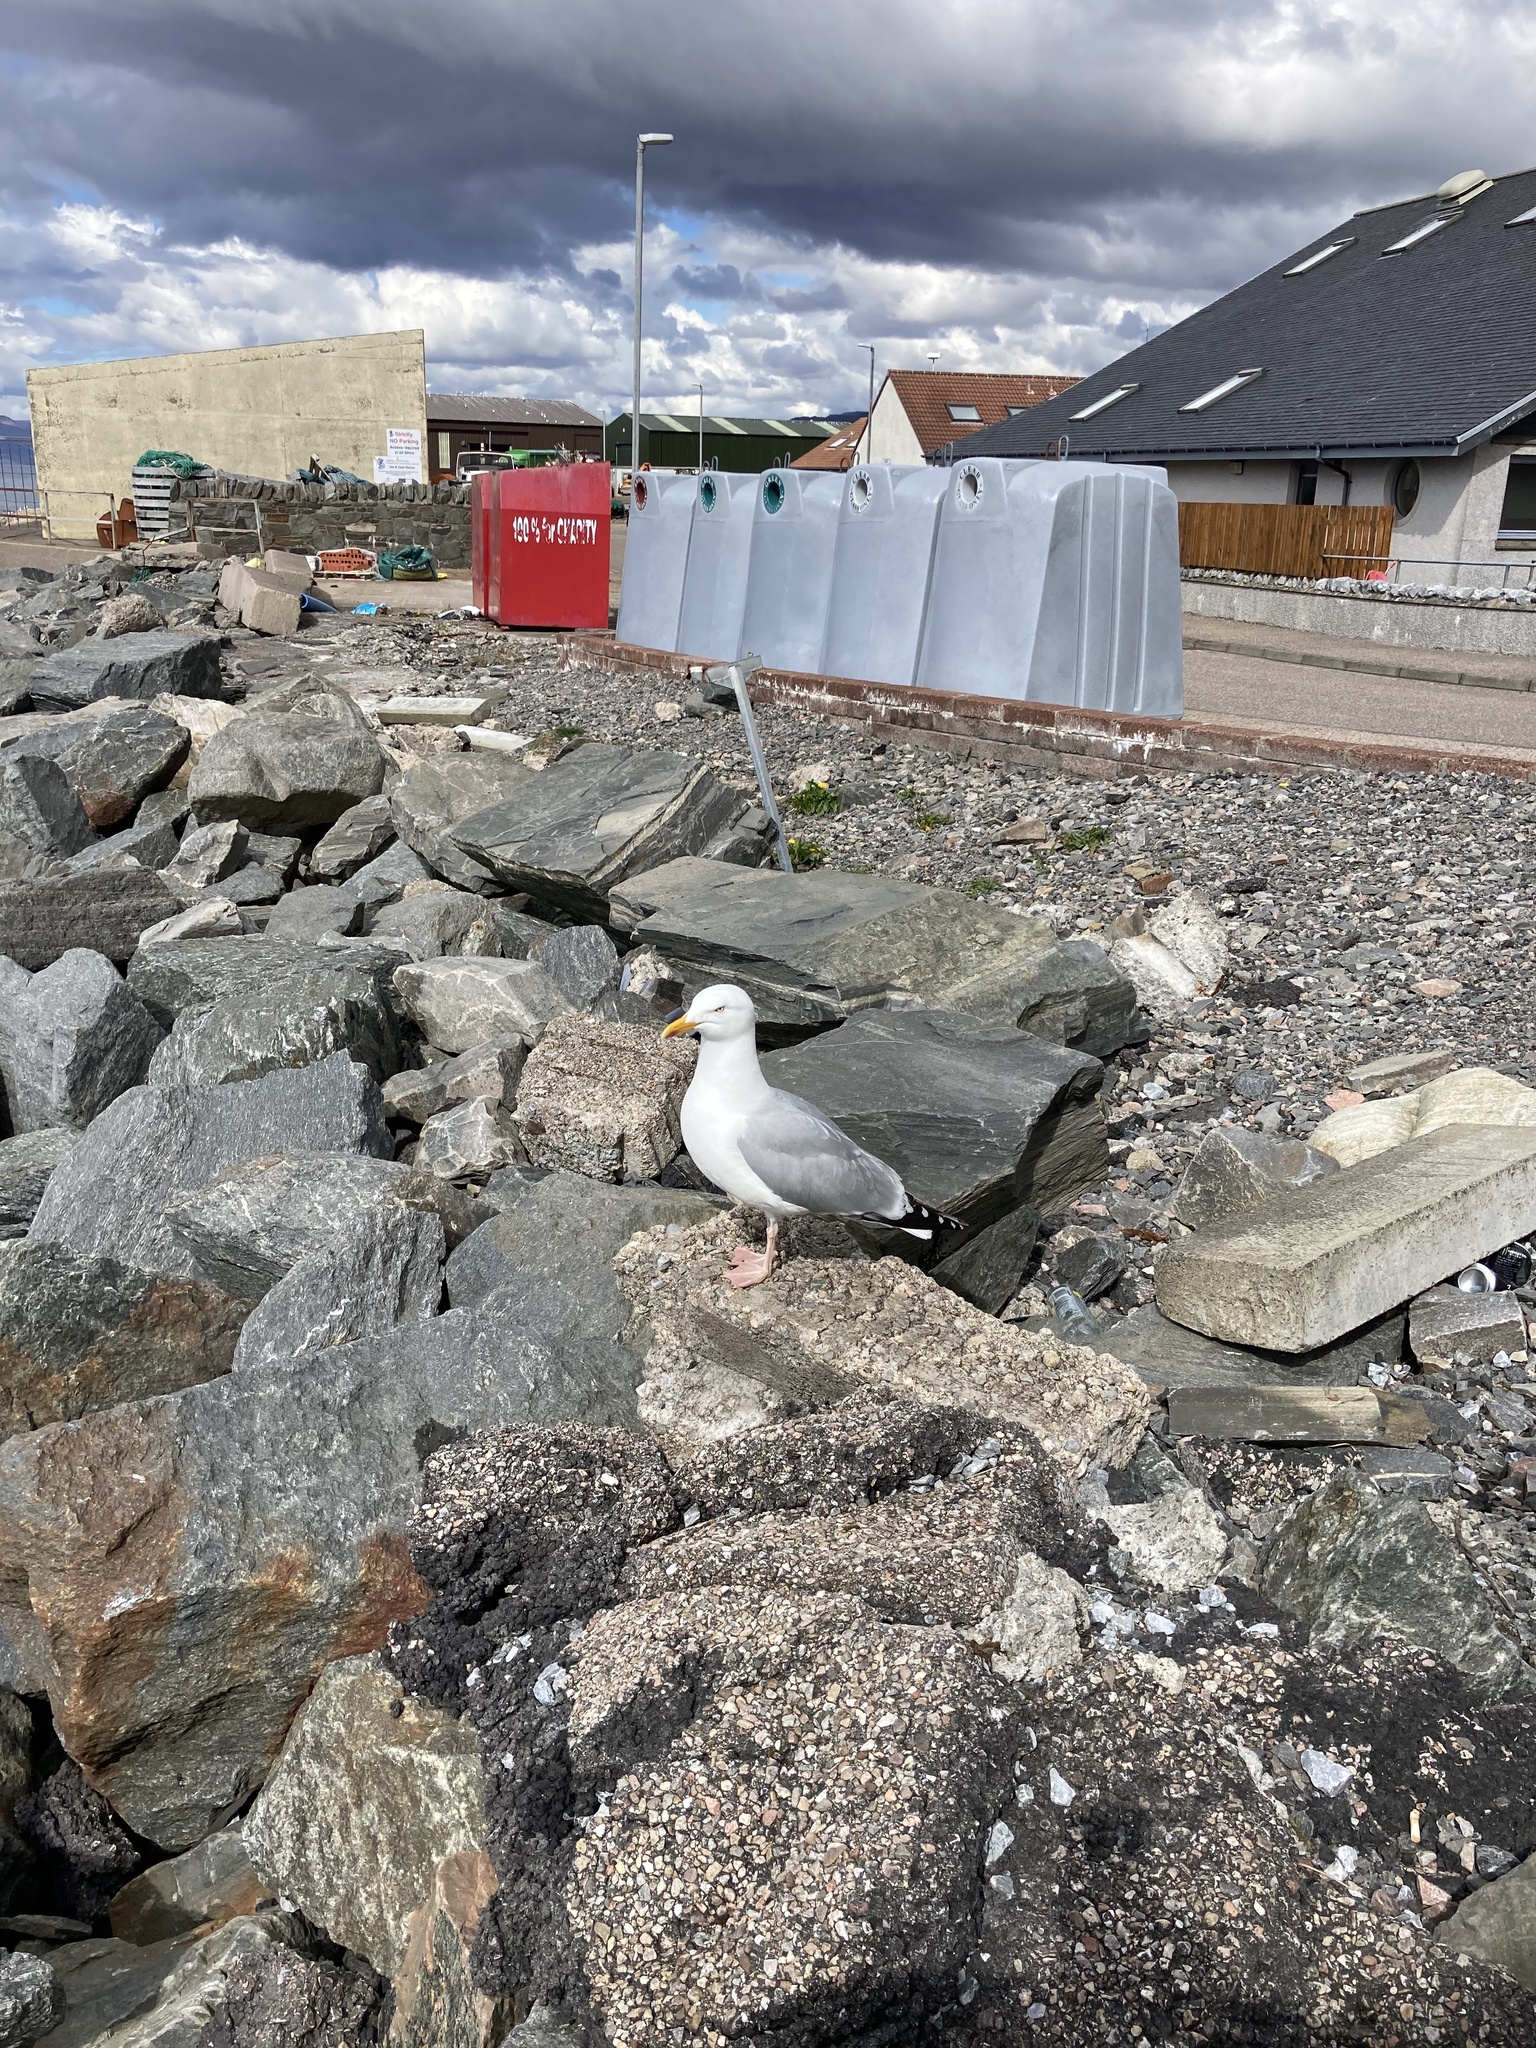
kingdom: Animalia
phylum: Chordata
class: Aves
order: Charadriiformes
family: Laridae
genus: Larus
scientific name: Larus argentatus
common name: Herring gull
